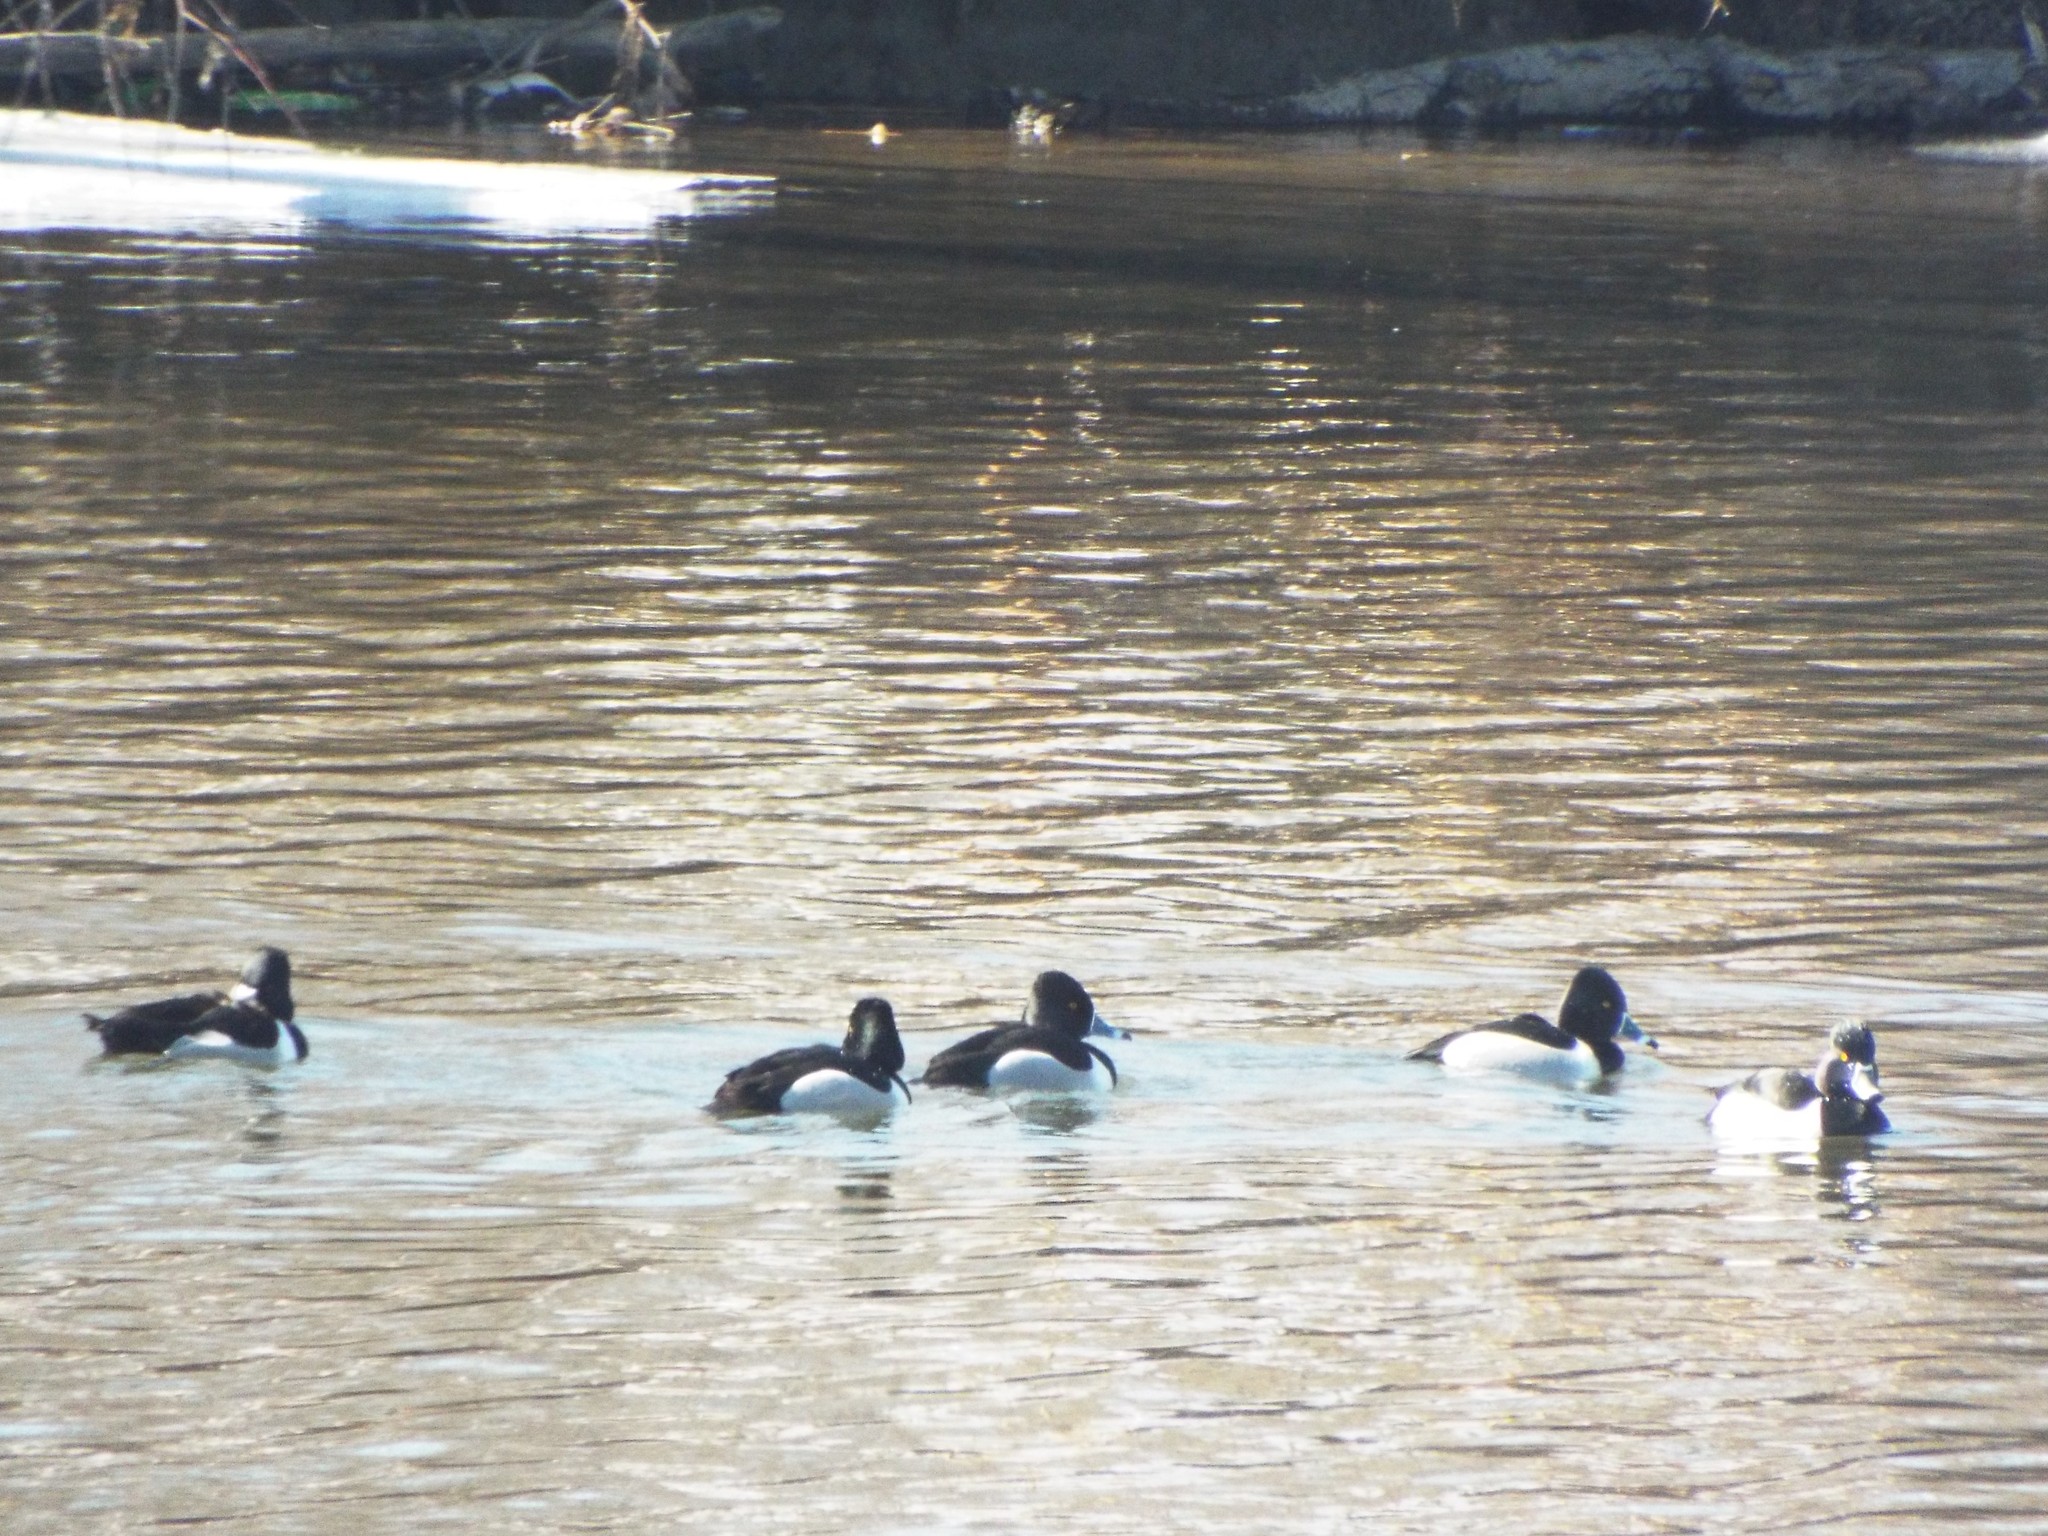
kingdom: Animalia
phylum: Chordata
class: Aves
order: Anseriformes
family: Anatidae
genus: Aythya
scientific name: Aythya collaris
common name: Ring-necked duck
